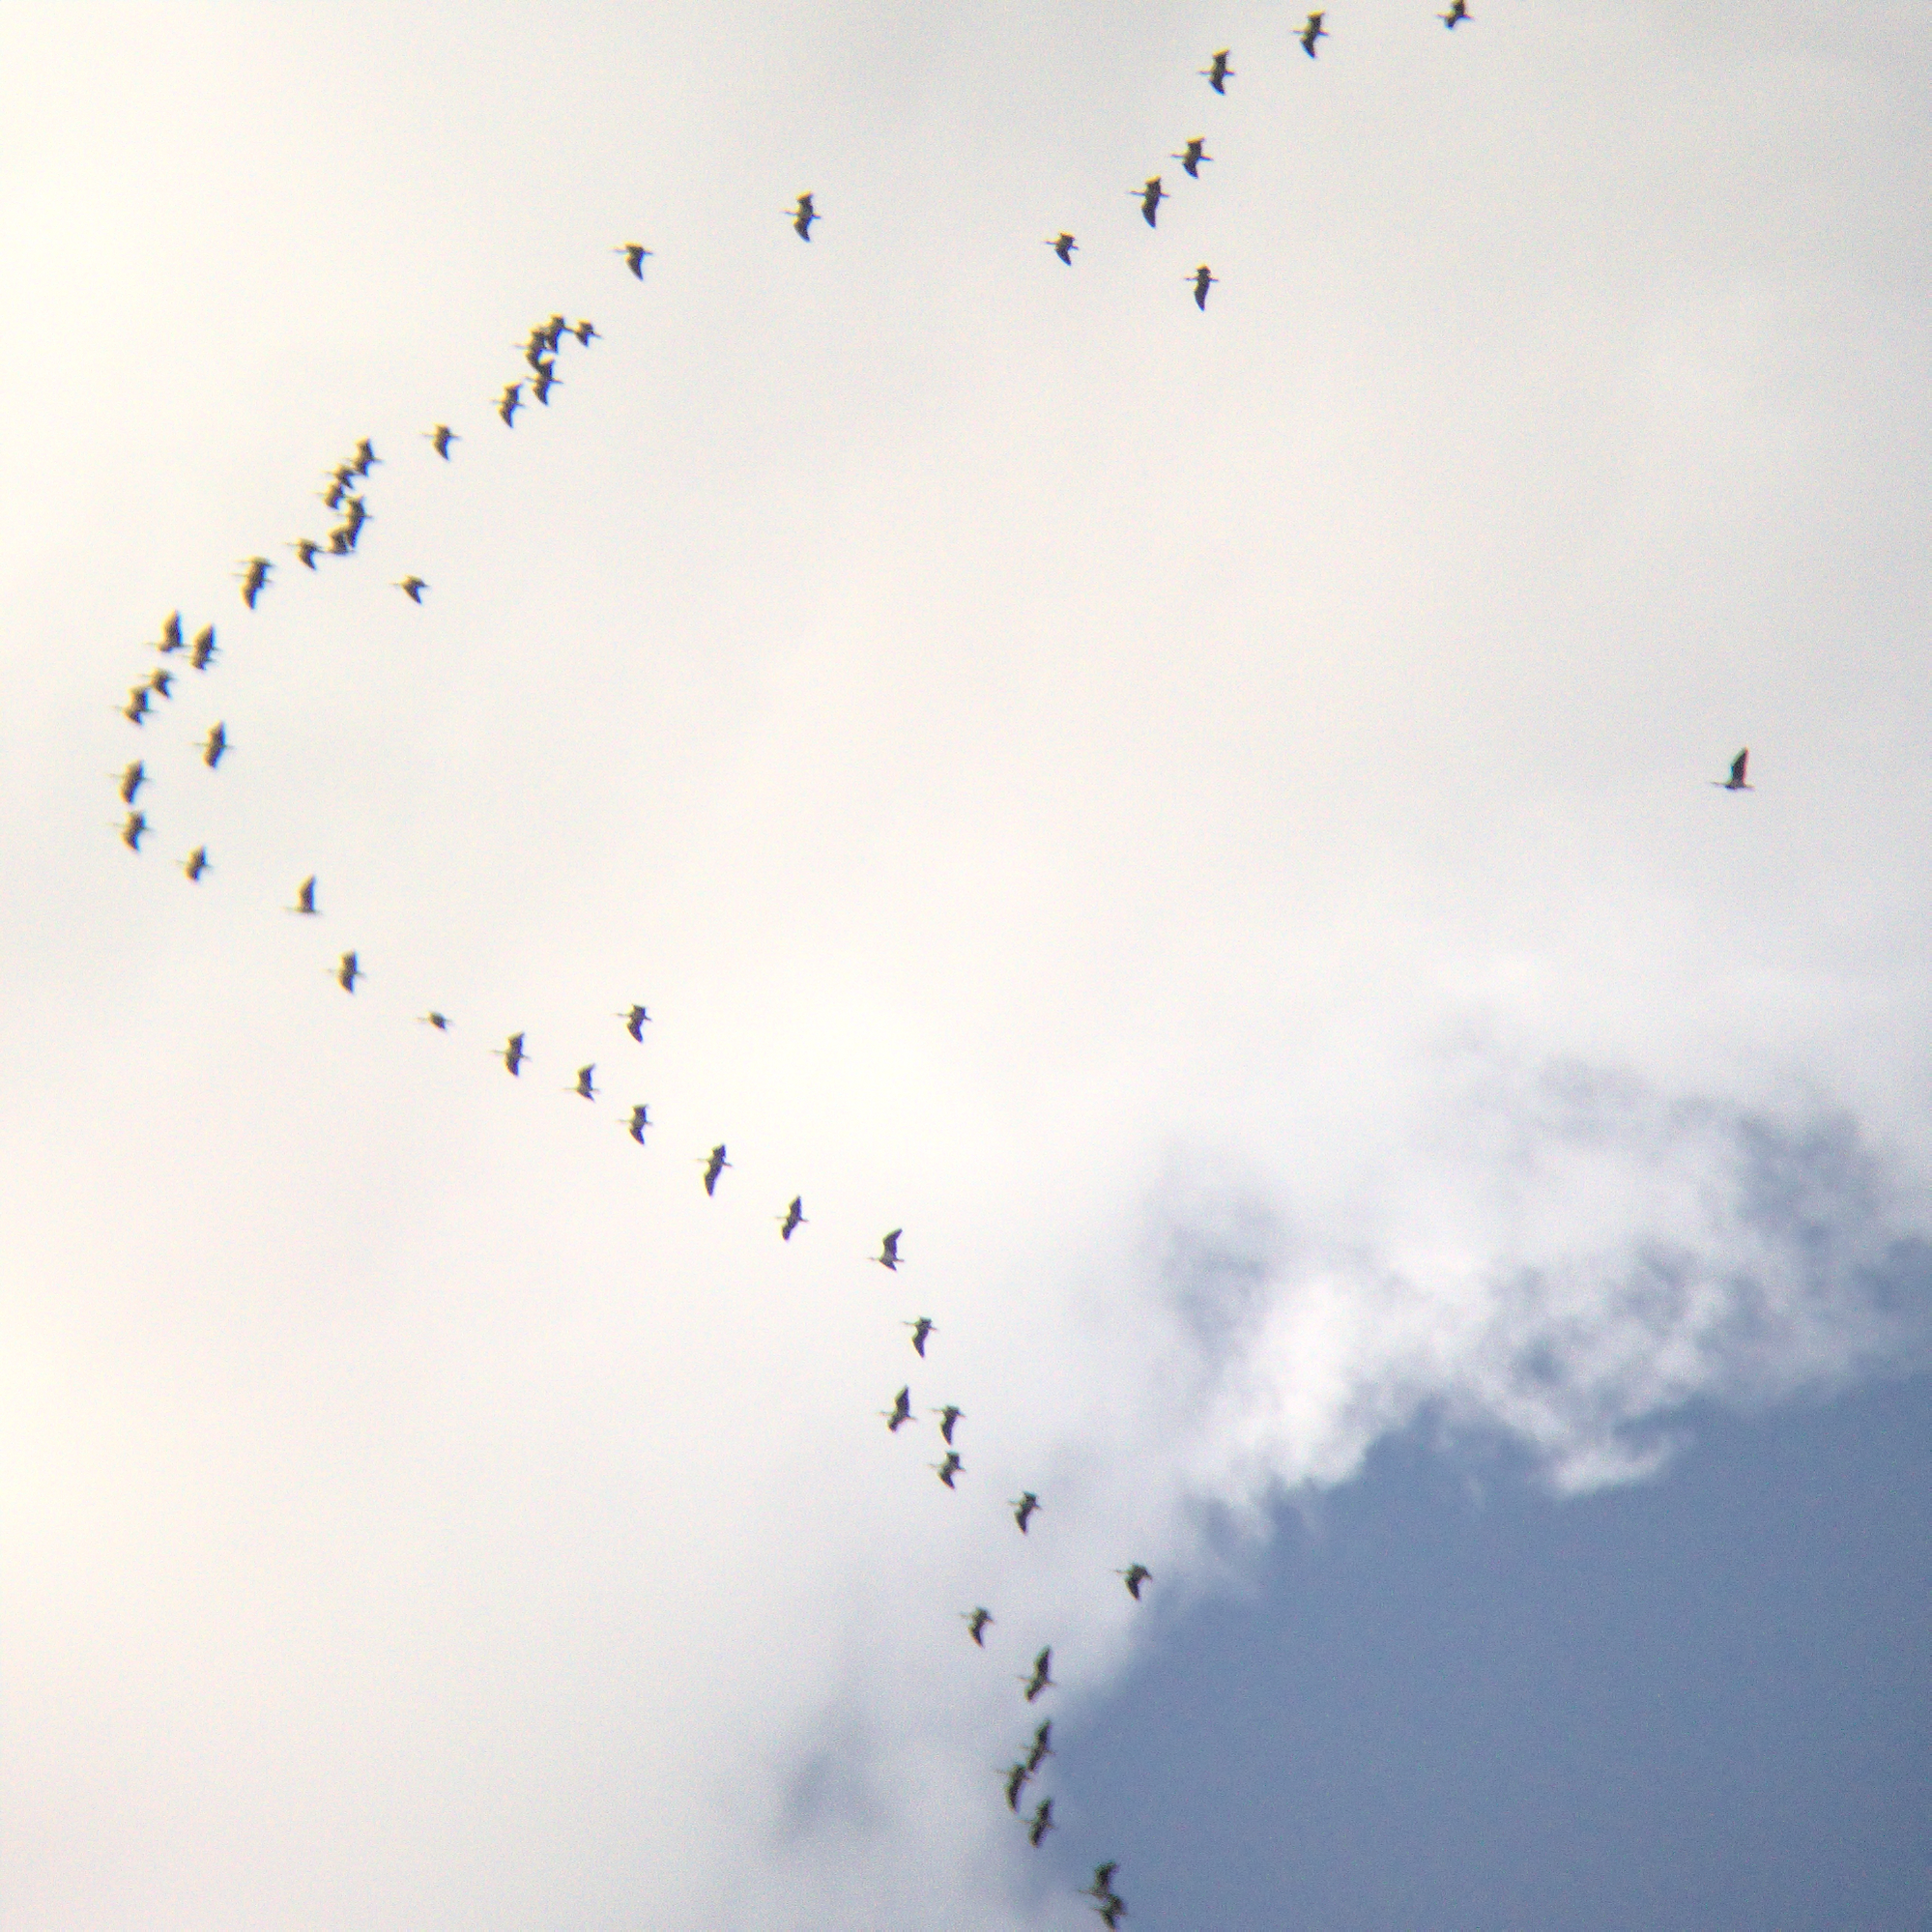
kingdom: Animalia
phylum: Chordata
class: Aves
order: Pelecaniformes
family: Threskiornithidae
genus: Threskiornis
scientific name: Threskiornis spinicollis
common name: Straw-necked ibis
